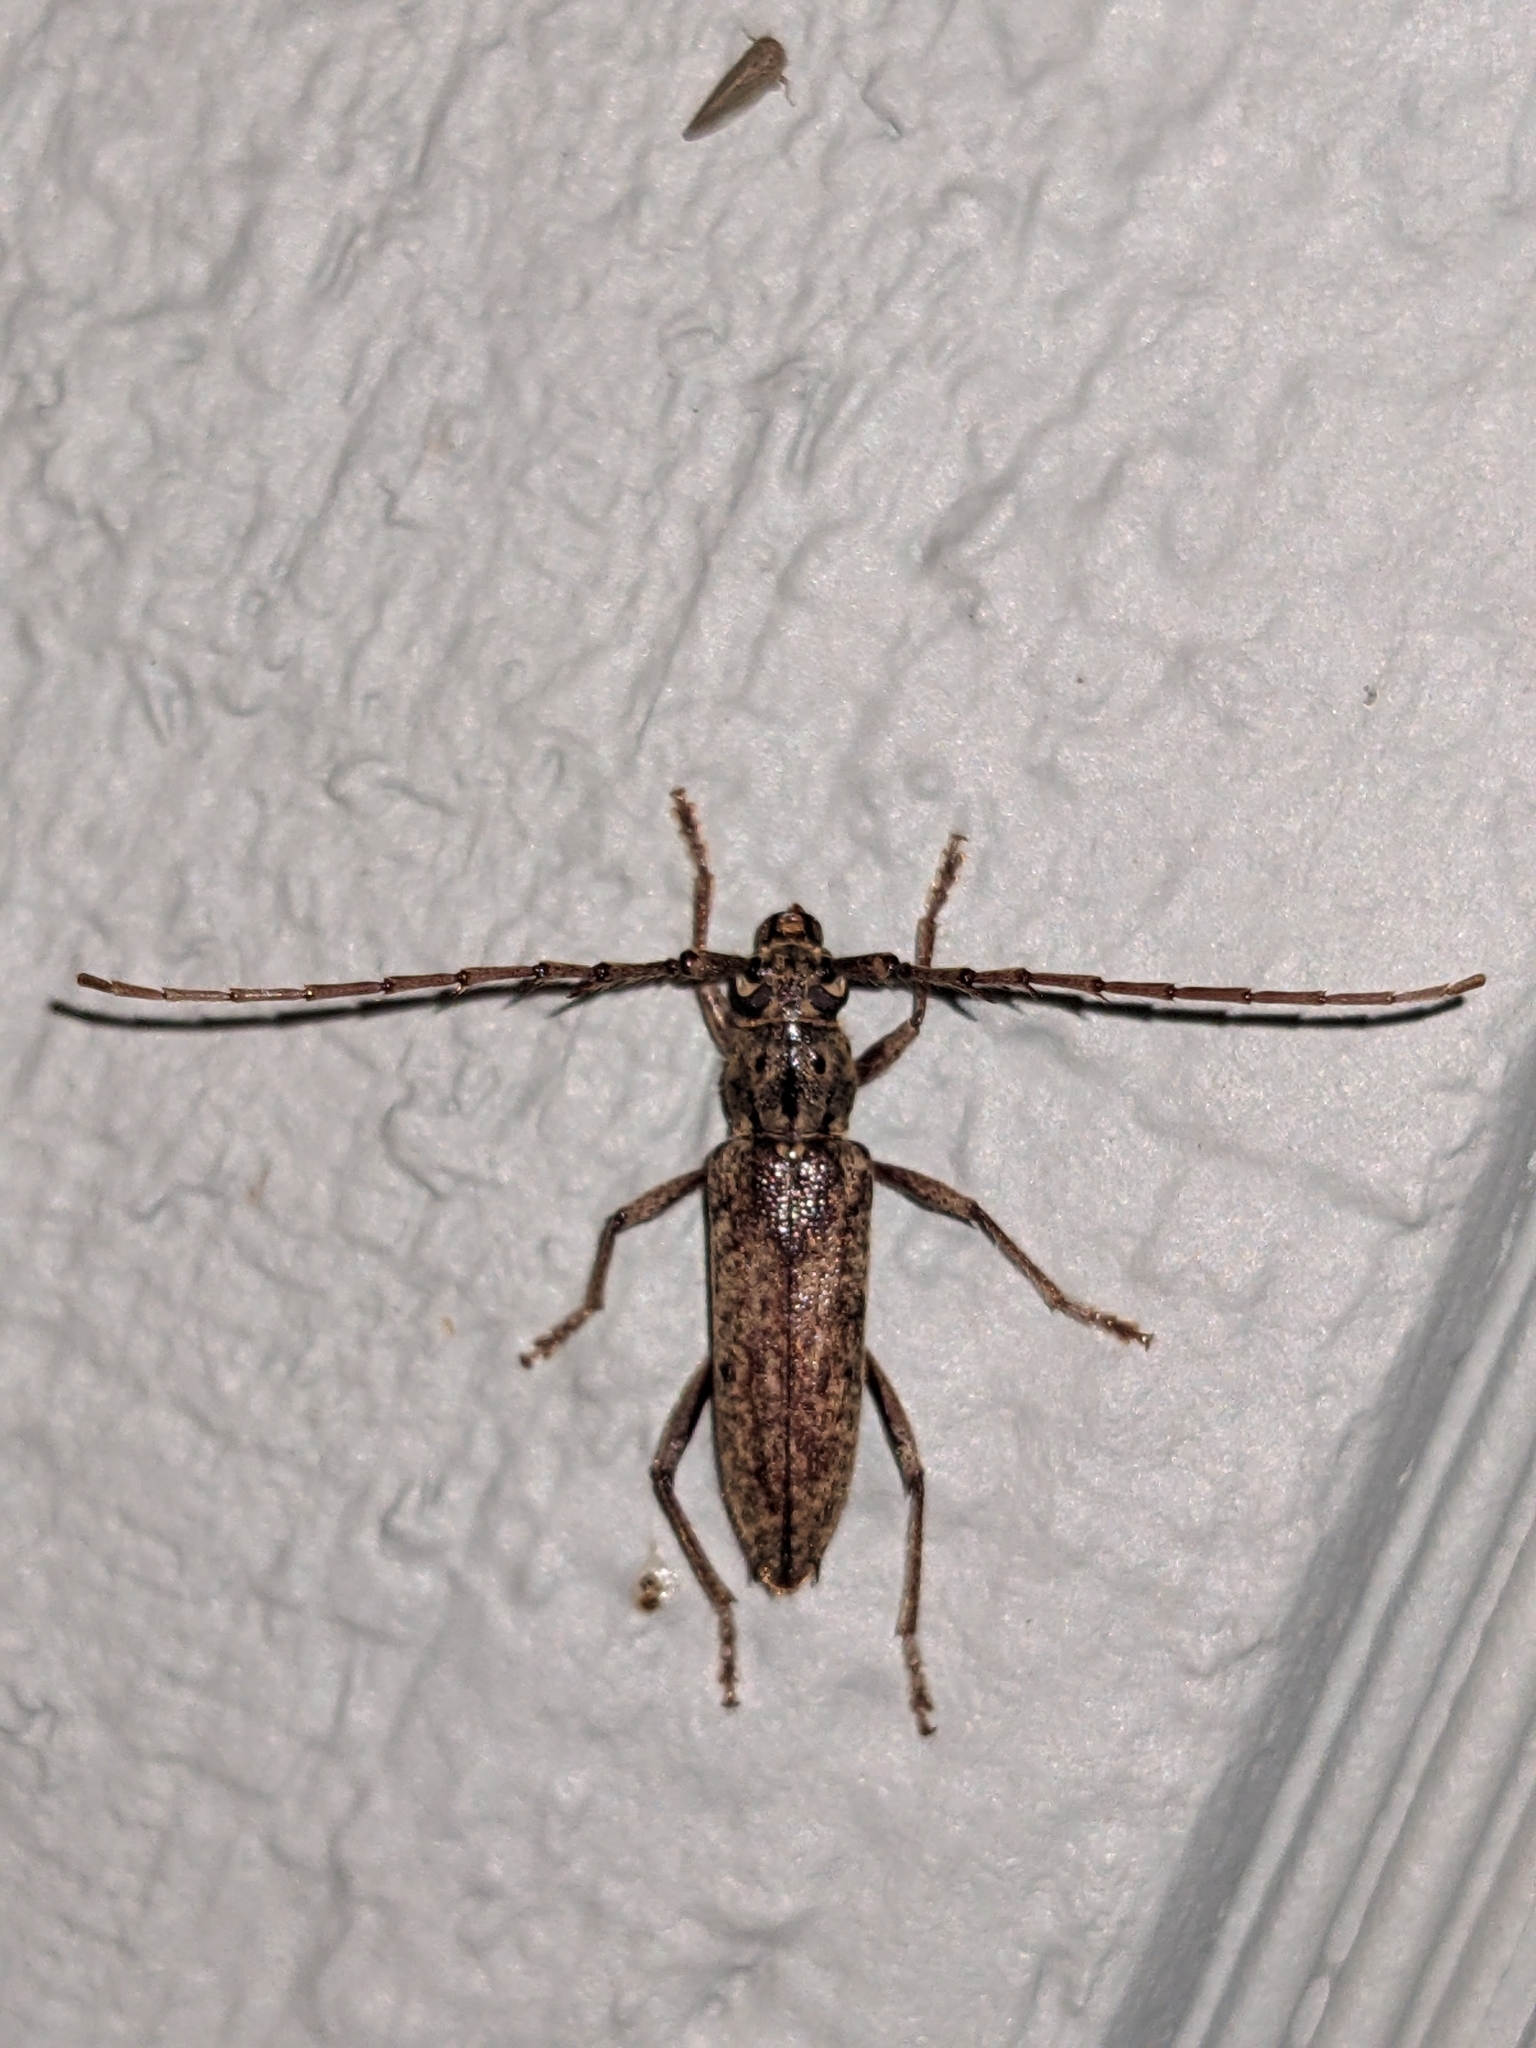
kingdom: Animalia
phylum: Arthropoda
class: Insecta
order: Coleoptera
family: Cerambycidae
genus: Elaphidion
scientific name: Elaphidion mucronatum
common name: Spined oak borer
